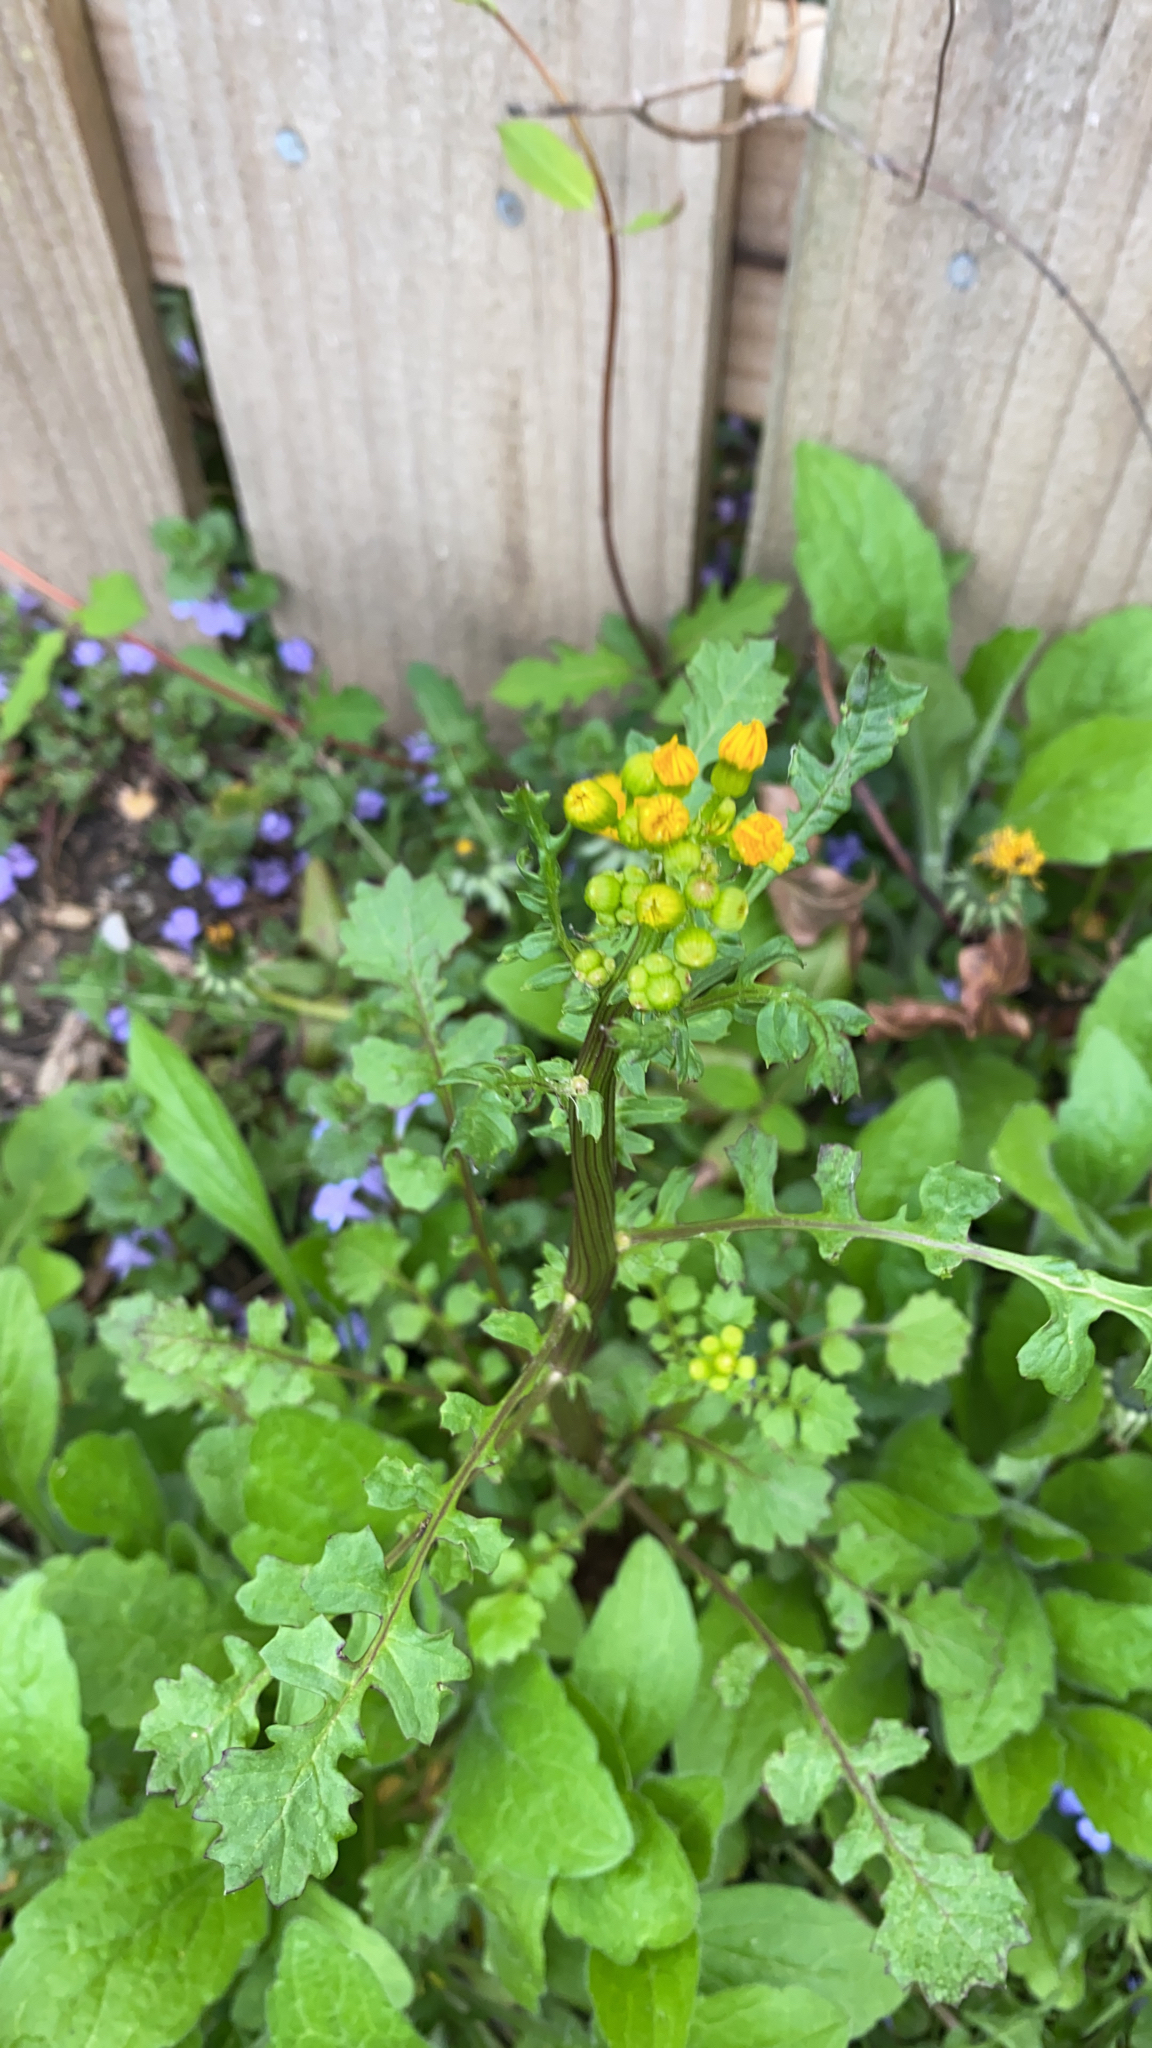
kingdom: Plantae
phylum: Tracheophyta
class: Magnoliopsida
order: Asterales
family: Asteraceae
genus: Packera
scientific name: Packera glabella
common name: Butterweed
